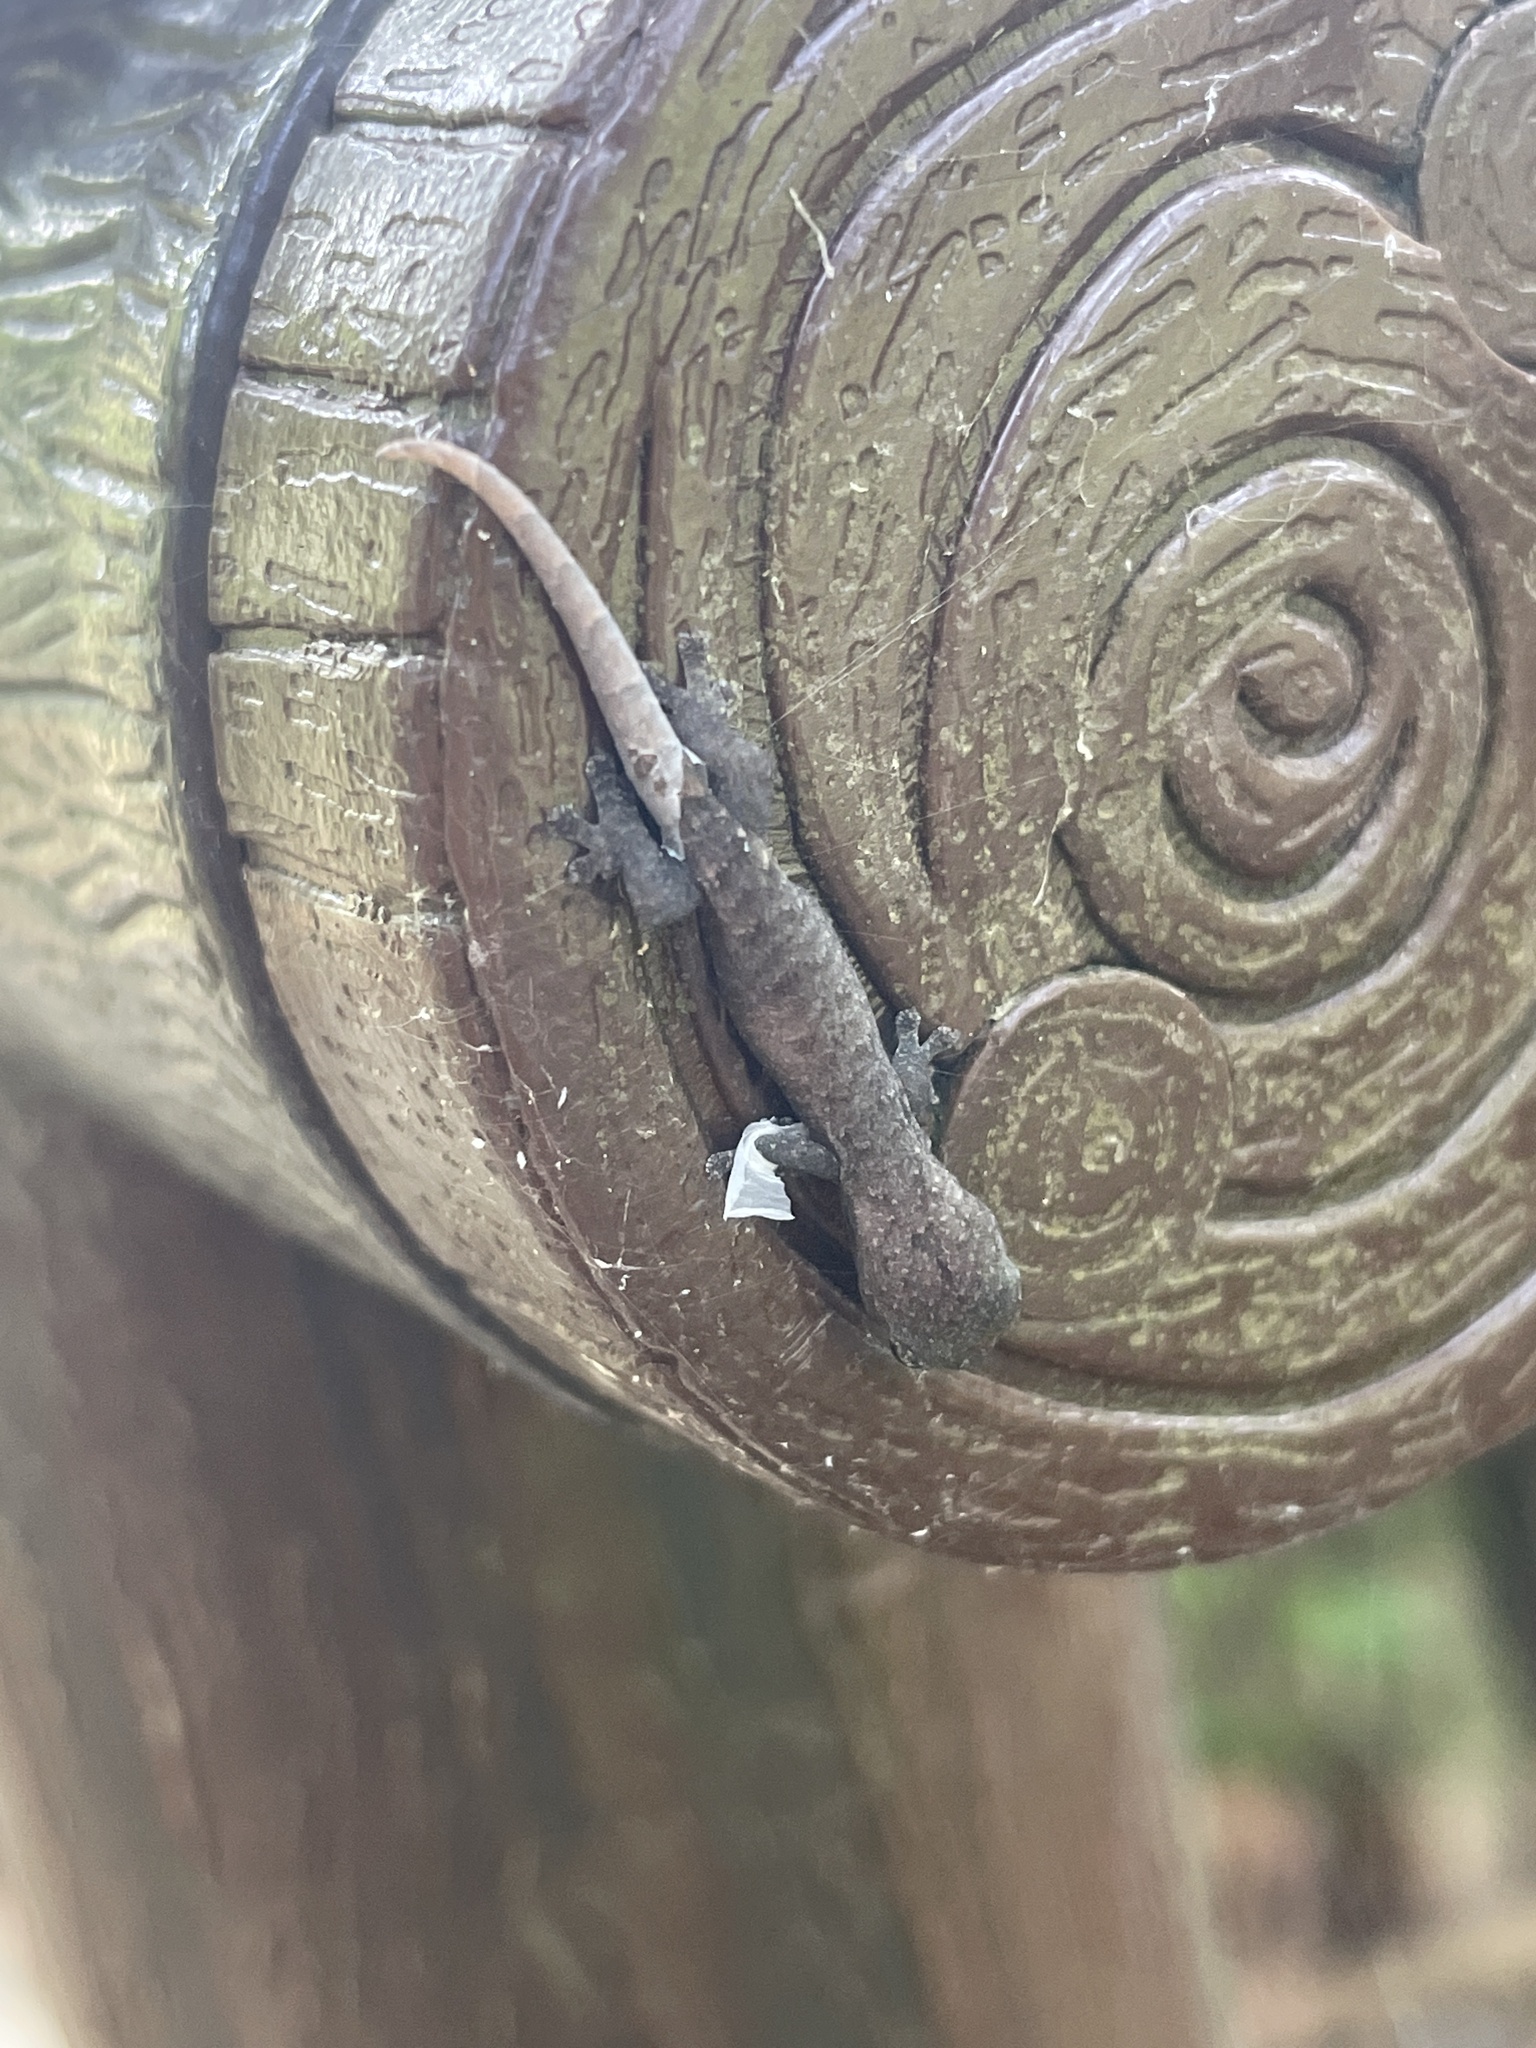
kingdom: Animalia
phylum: Chordata
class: Squamata
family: Gekkonidae
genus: Hemiphyllodactylus
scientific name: Hemiphyllodactylus hongkongensis
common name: Hong kong slender gecko
